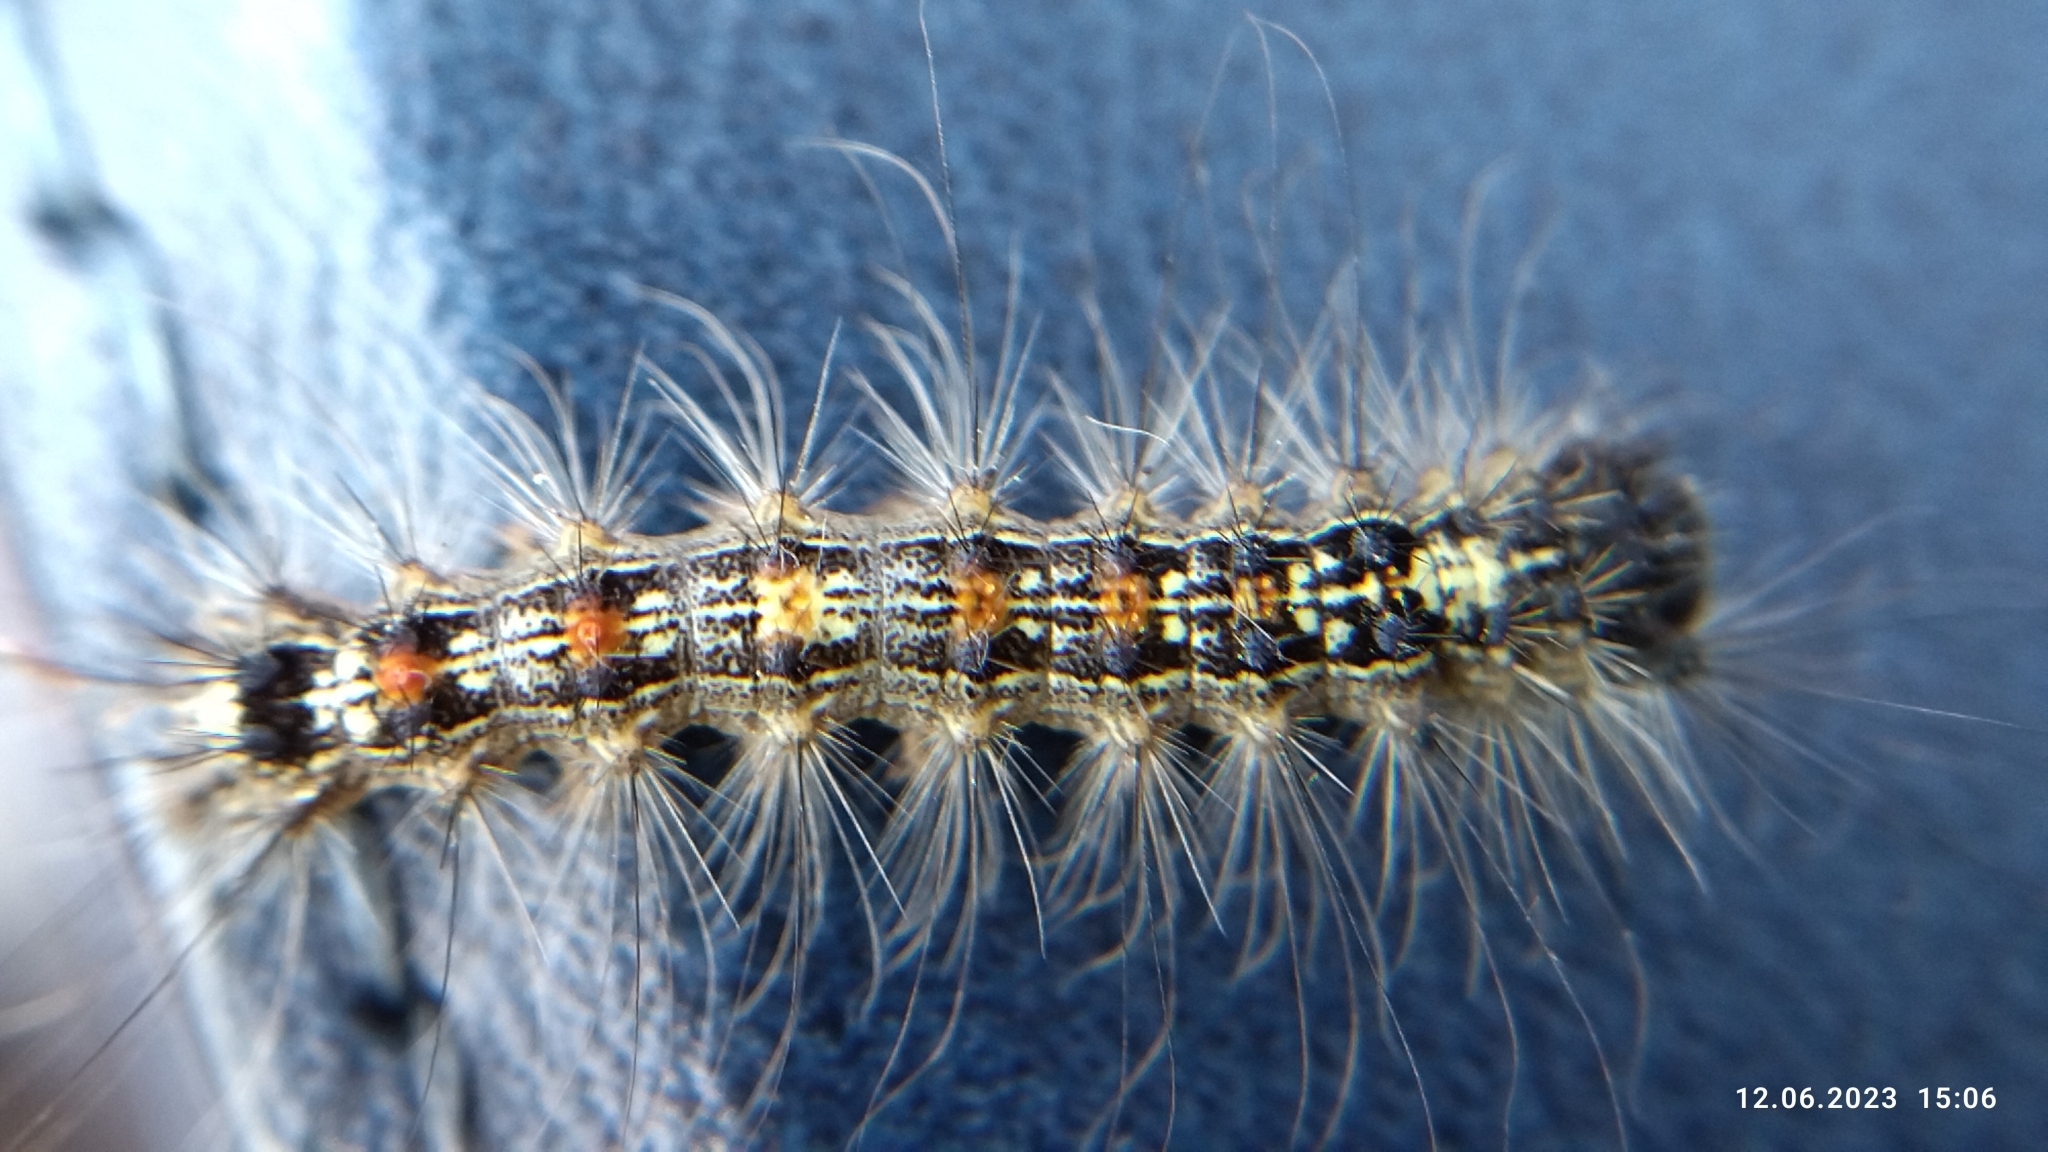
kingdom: Animalia
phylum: Arthropoda
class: Insecta
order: Lepidoptera
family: Erebidae
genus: Lymantria
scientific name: Lymantria dispar
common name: Gypsy moth
